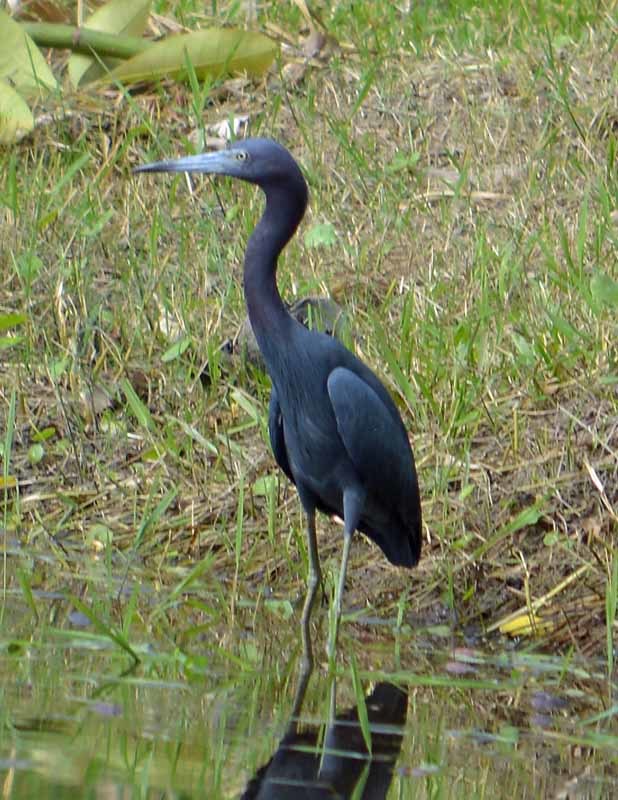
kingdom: Animalia
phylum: Chordata
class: Aves
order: Pelecaniformes
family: Ardeidae
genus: Egretta
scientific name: Egretta caerulea
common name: Little blue heron
